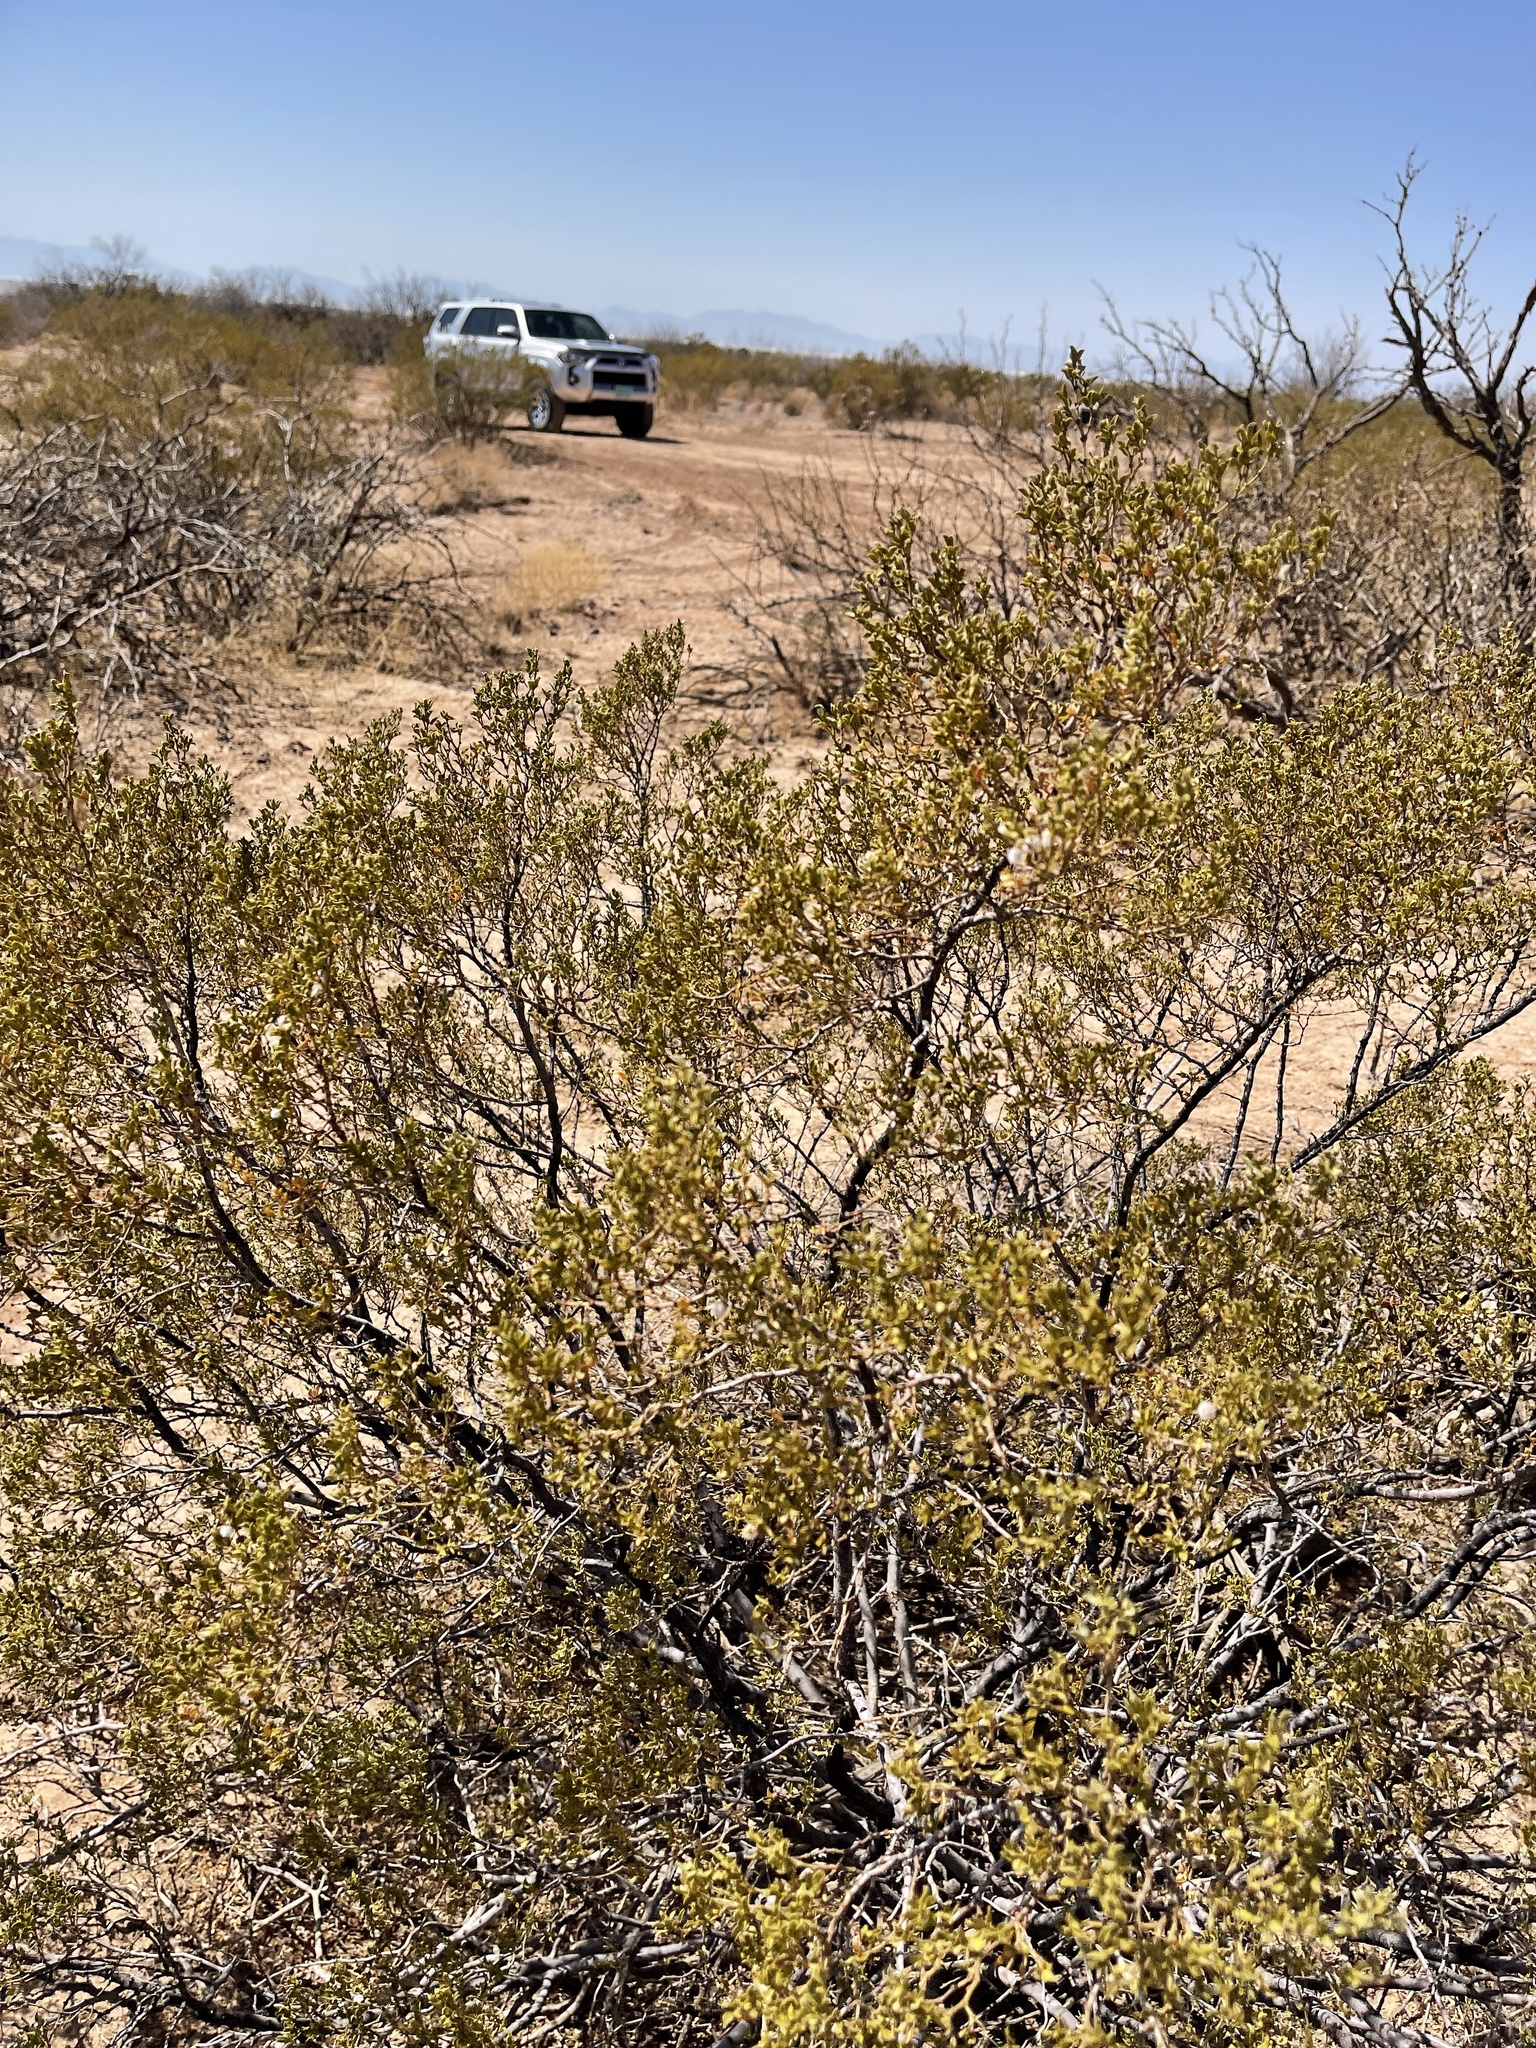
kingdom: Plantae
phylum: Tracheophyta
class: Magnoliopsida
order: Zygophyllales
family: Zygophyllaceae
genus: Larrea
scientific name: Larrea tridentata
